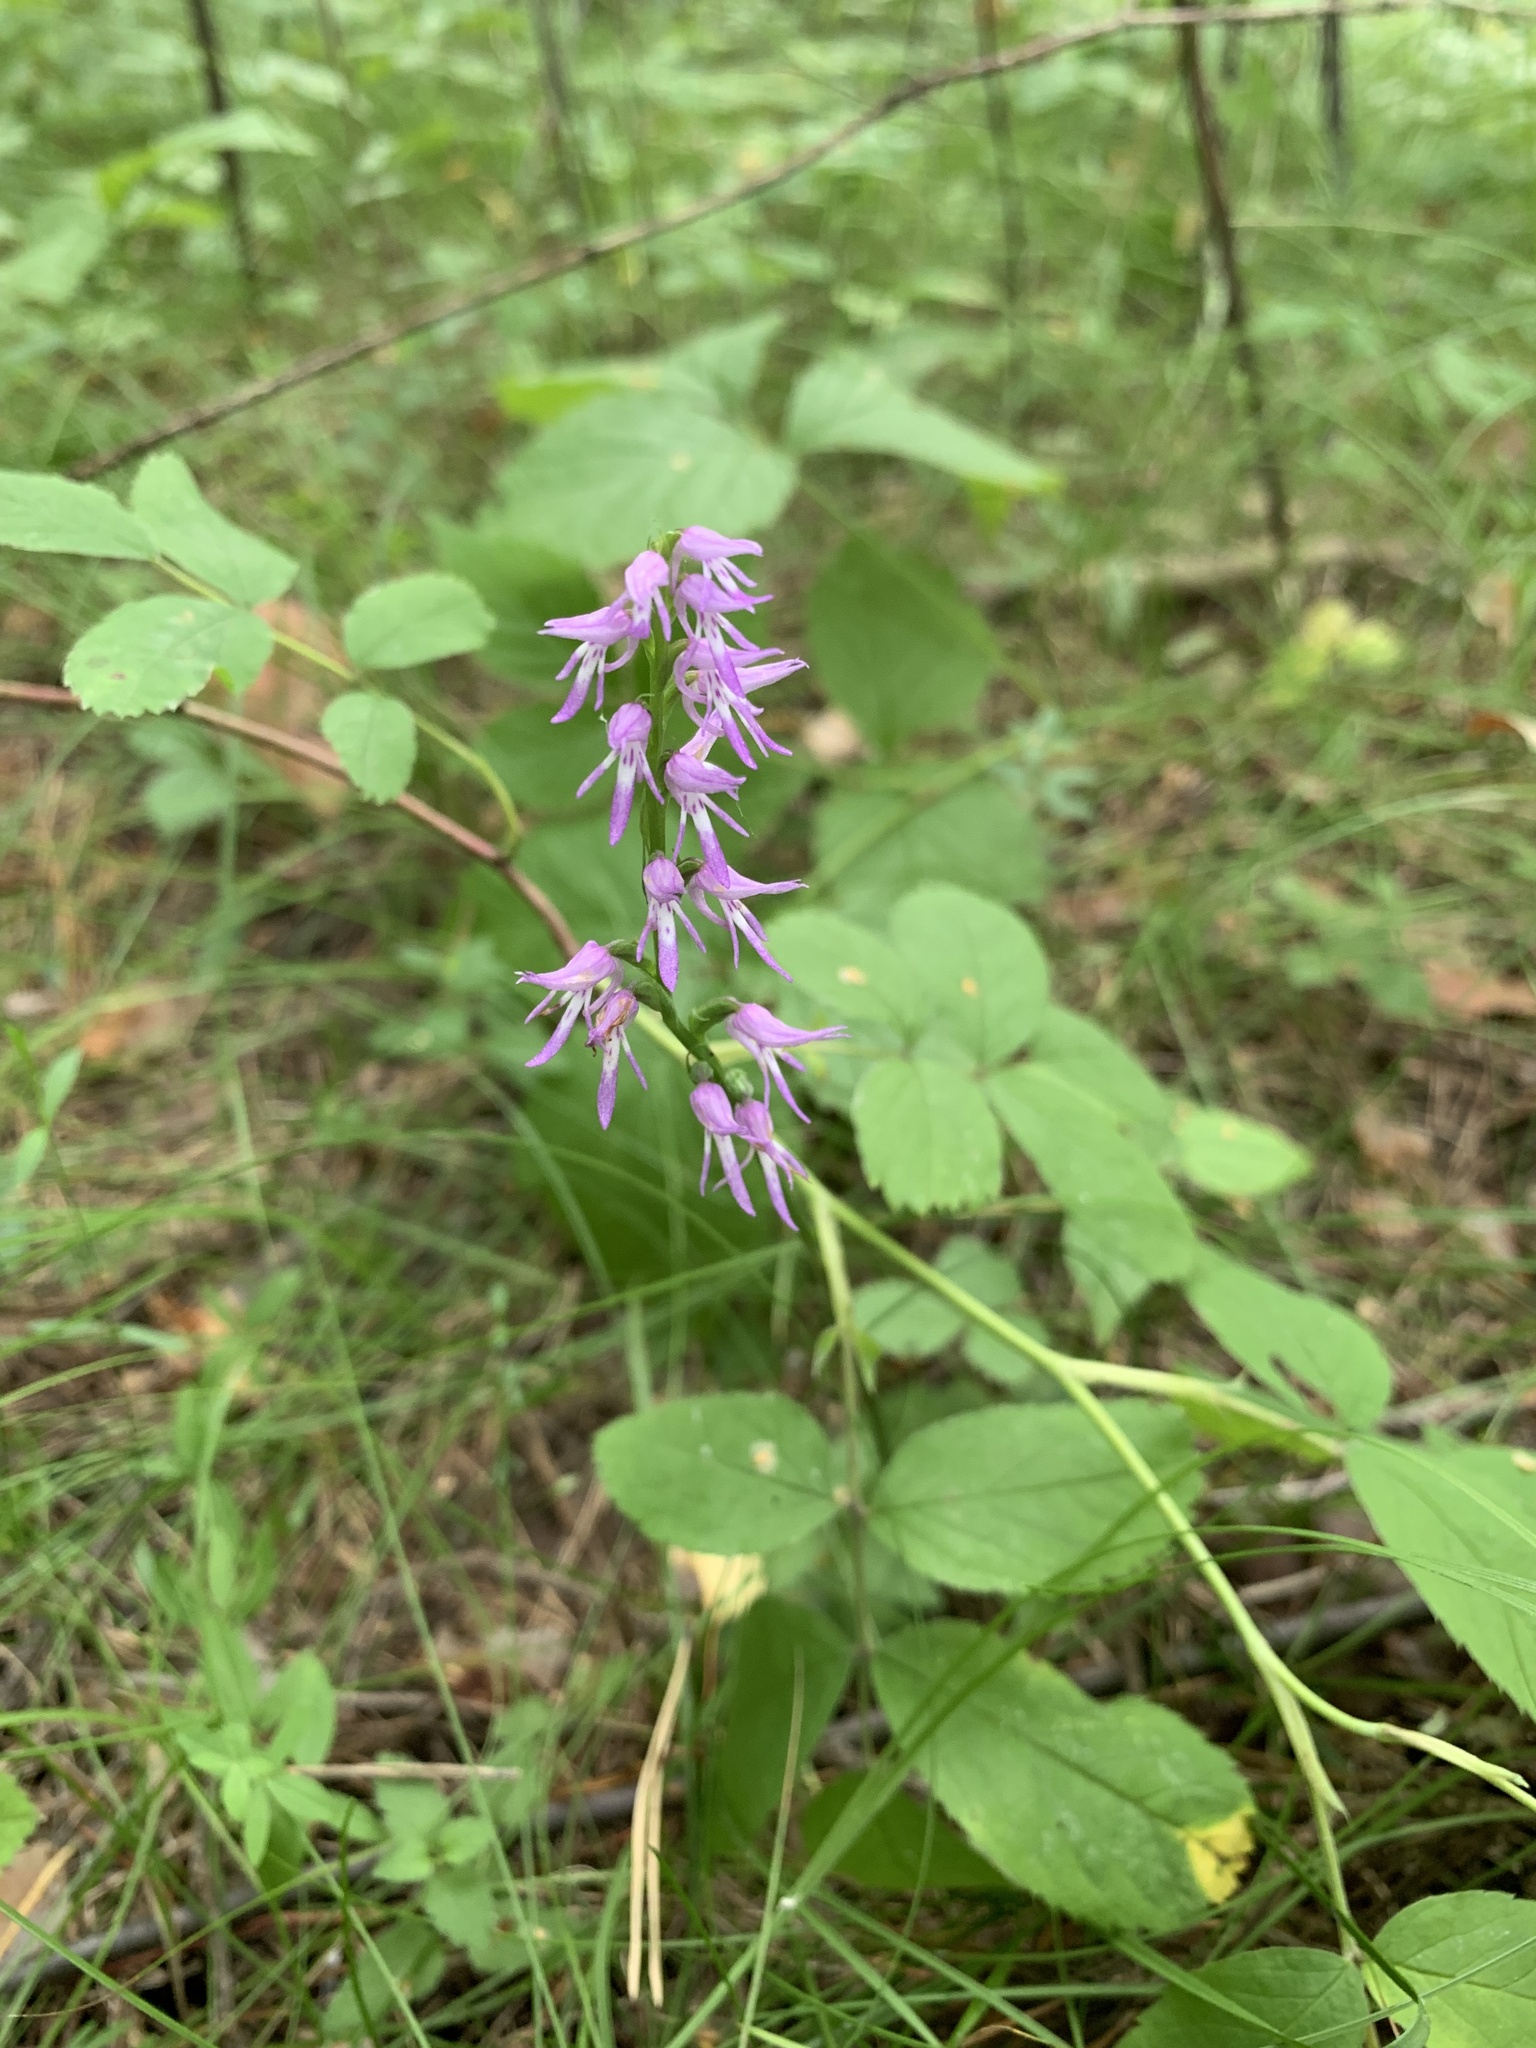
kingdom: Plantae
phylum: Tracheophyta
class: Liliopsida
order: Asparagales
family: Orchidaceae
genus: Hemipilia
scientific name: Hemipilia cucullata
